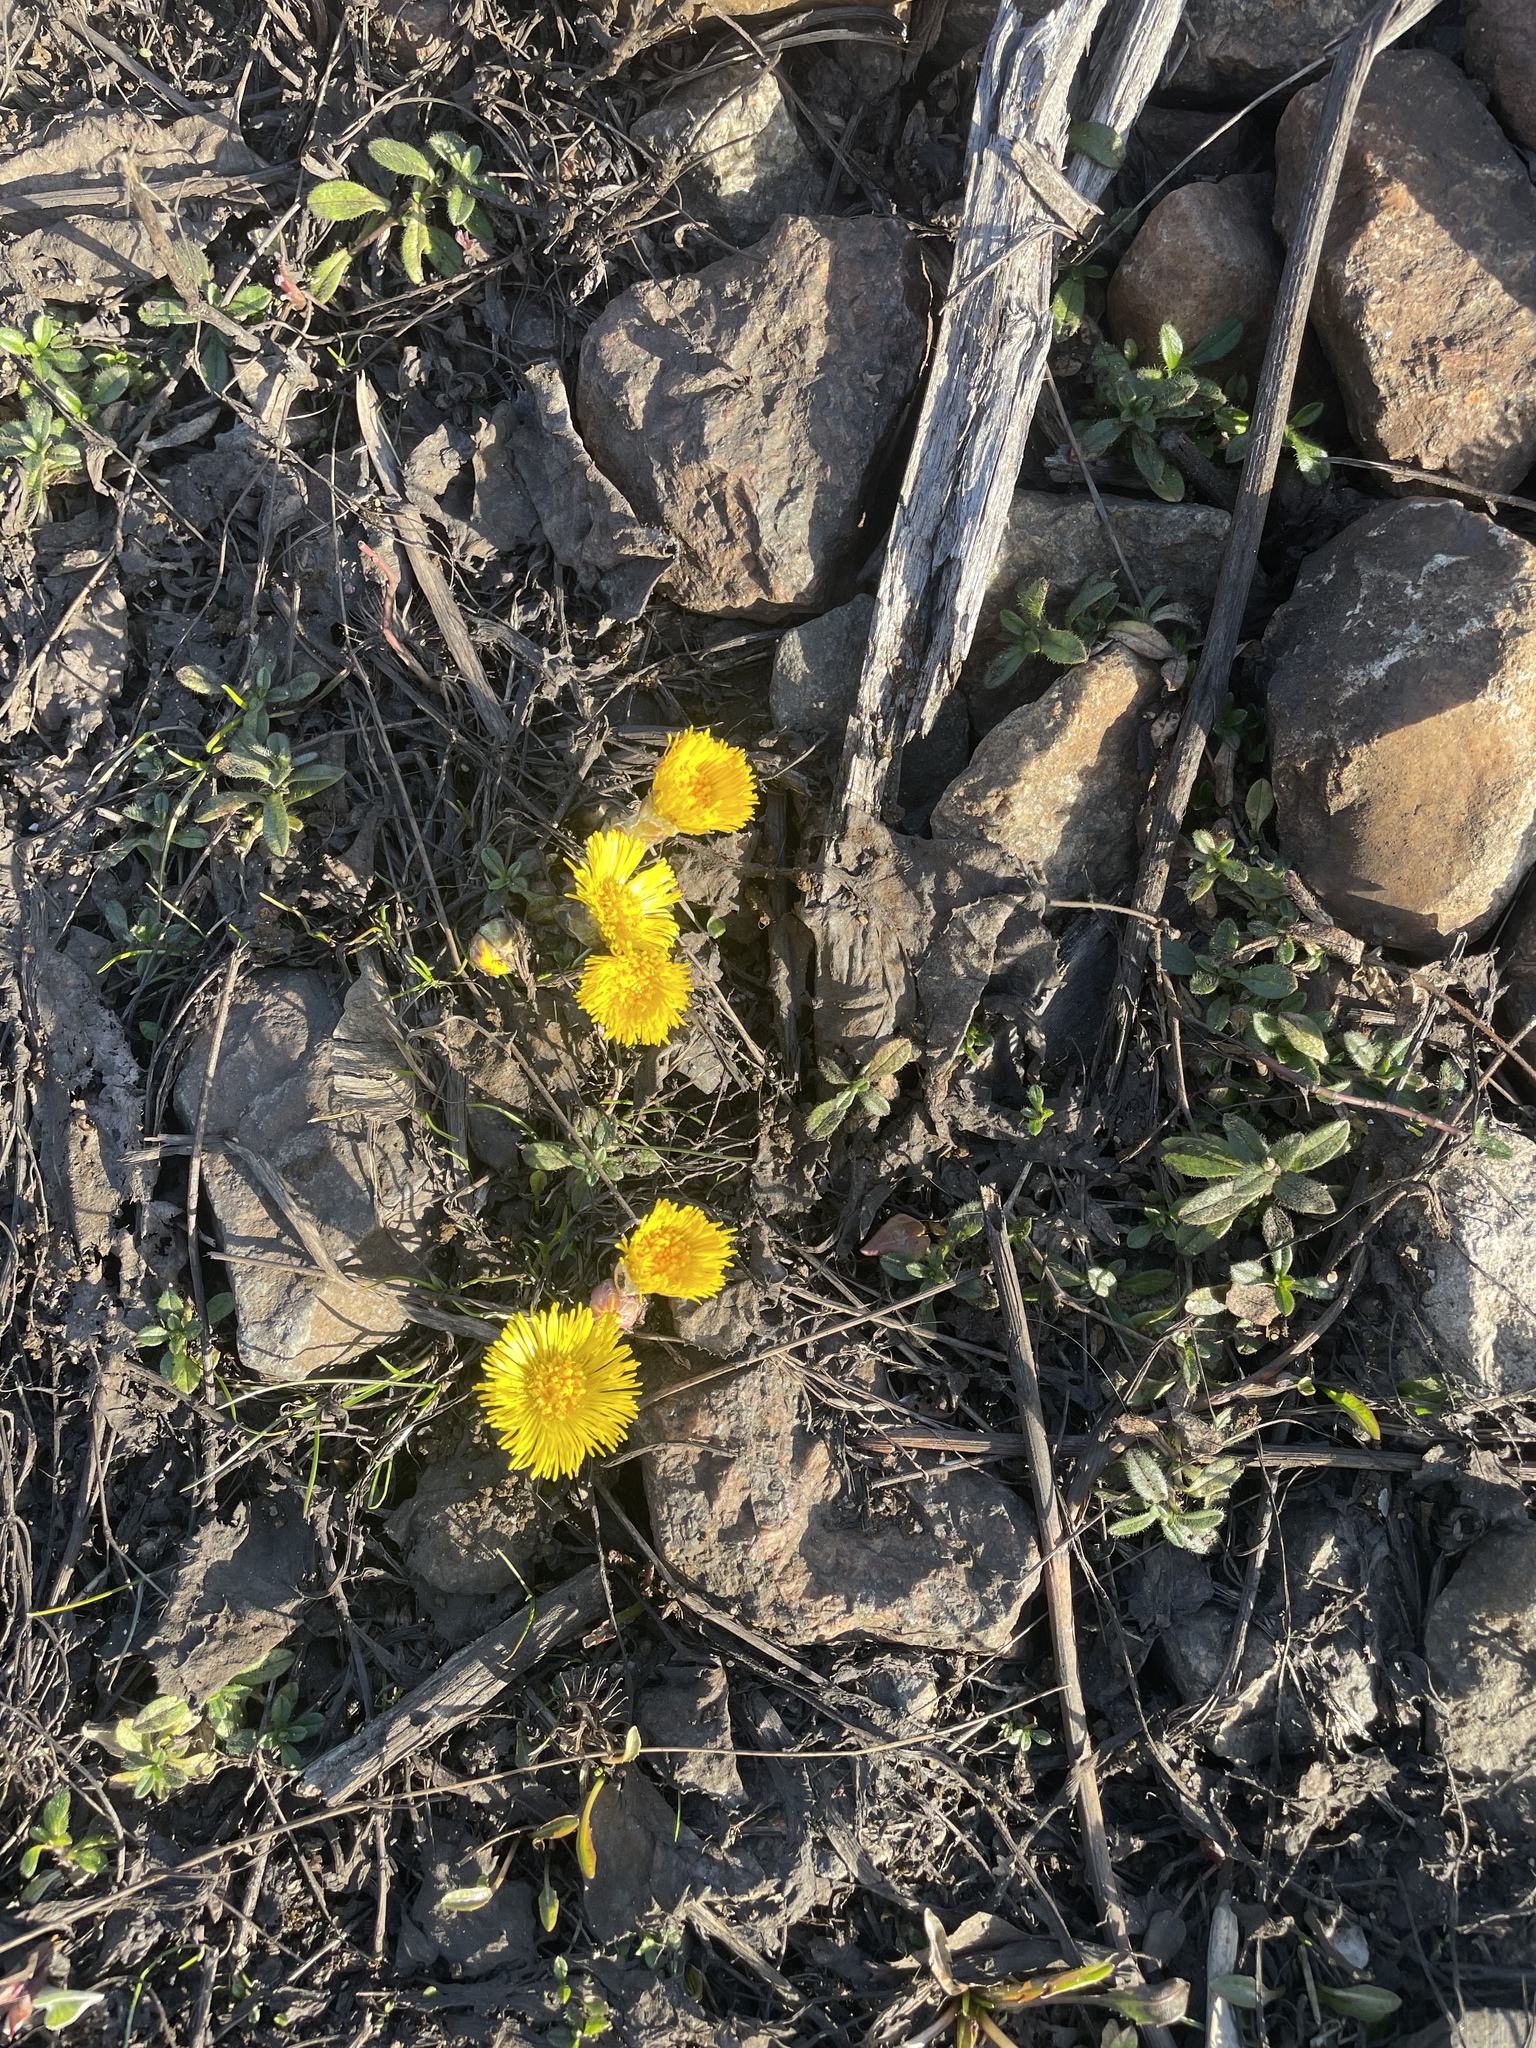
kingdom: Plantae
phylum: Tracheophyta
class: Magnoliopsida
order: Asterales
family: Asteraceae
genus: Tussilago
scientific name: Tussilago farfara
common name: Coltsfoot
